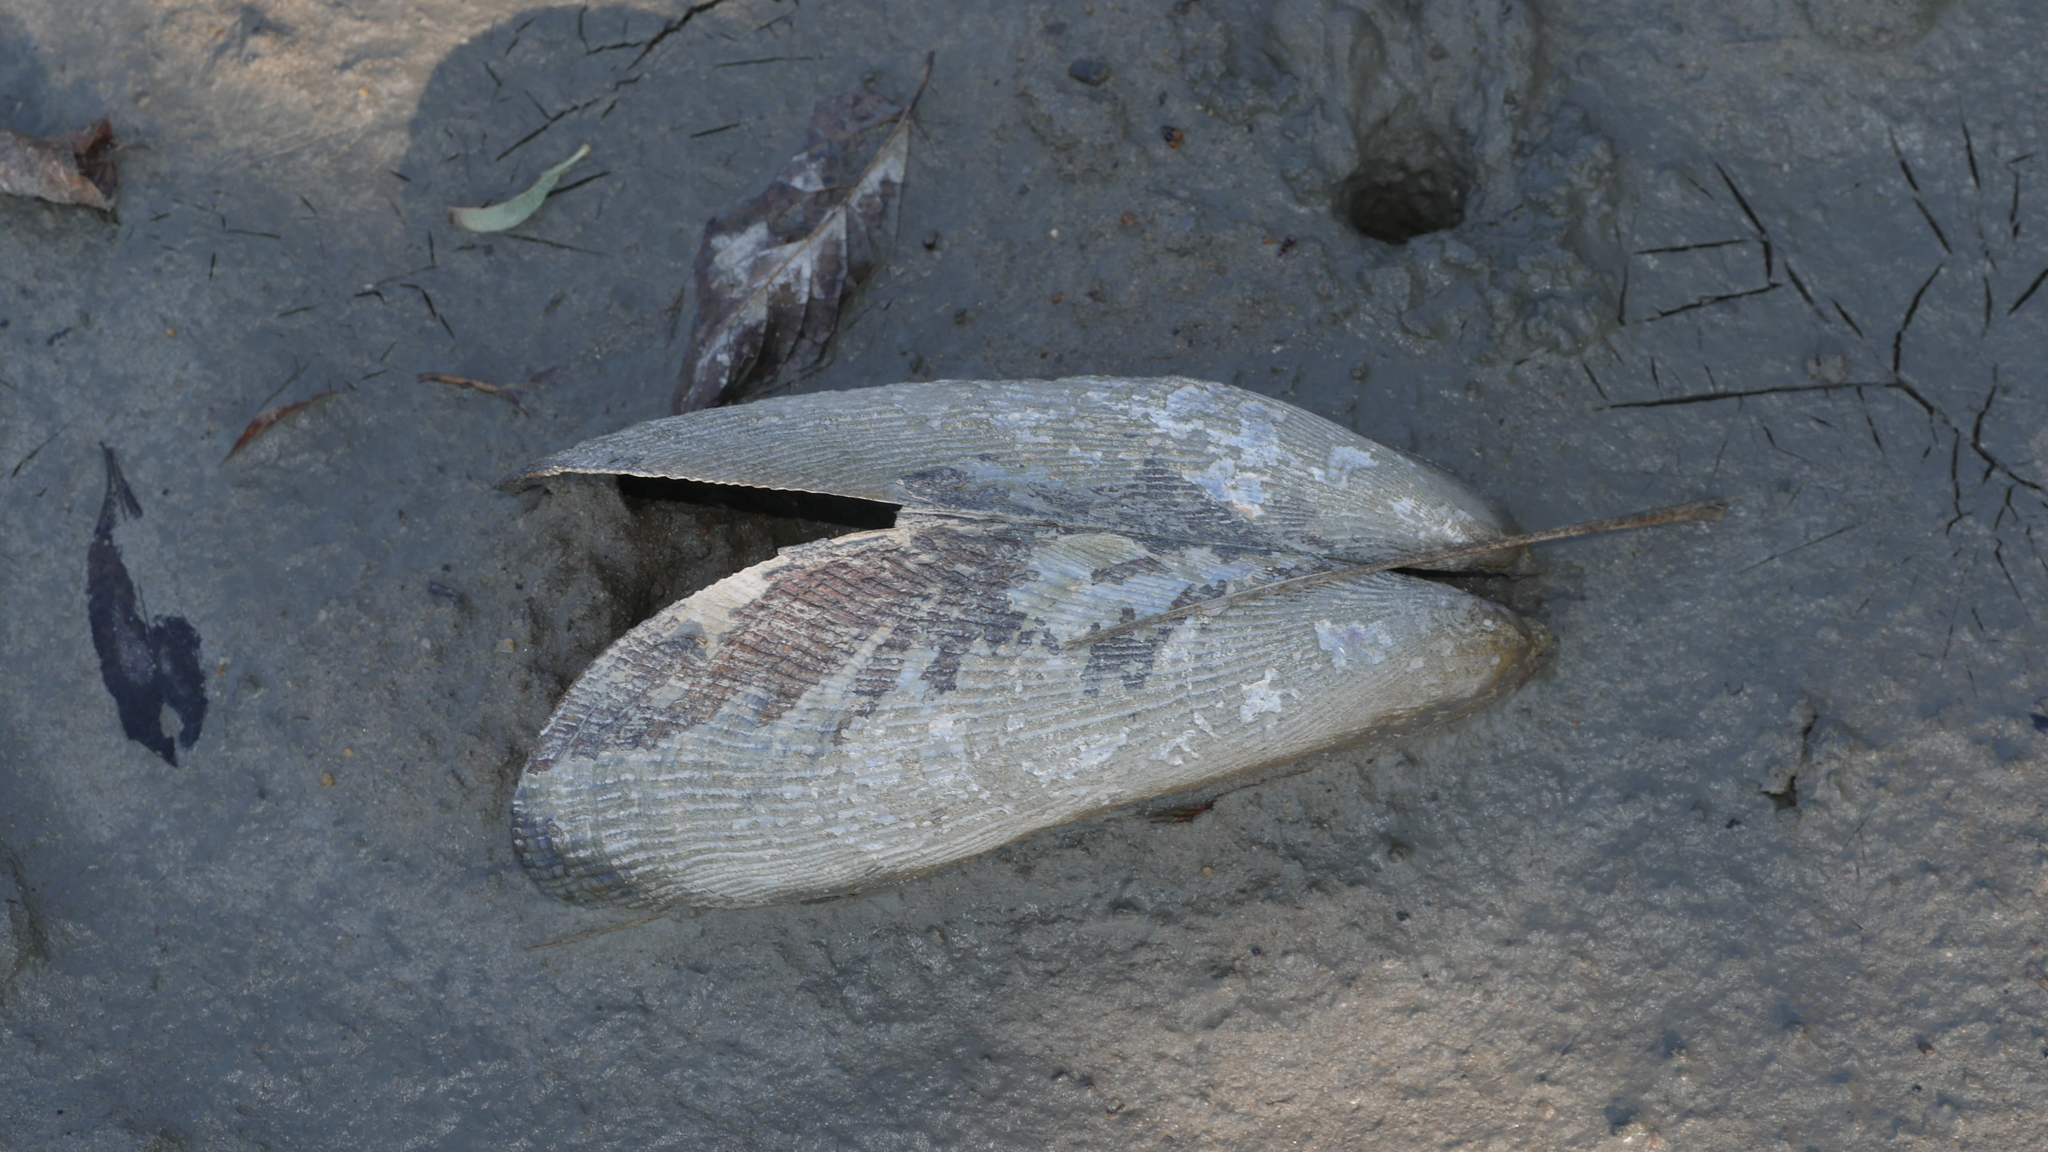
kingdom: Animalia
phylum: Mollusca
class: Bivalvia
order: Mytilida
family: Mytilidae
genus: Geukensia
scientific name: Geukensia demissa
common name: Ribbed mussel
